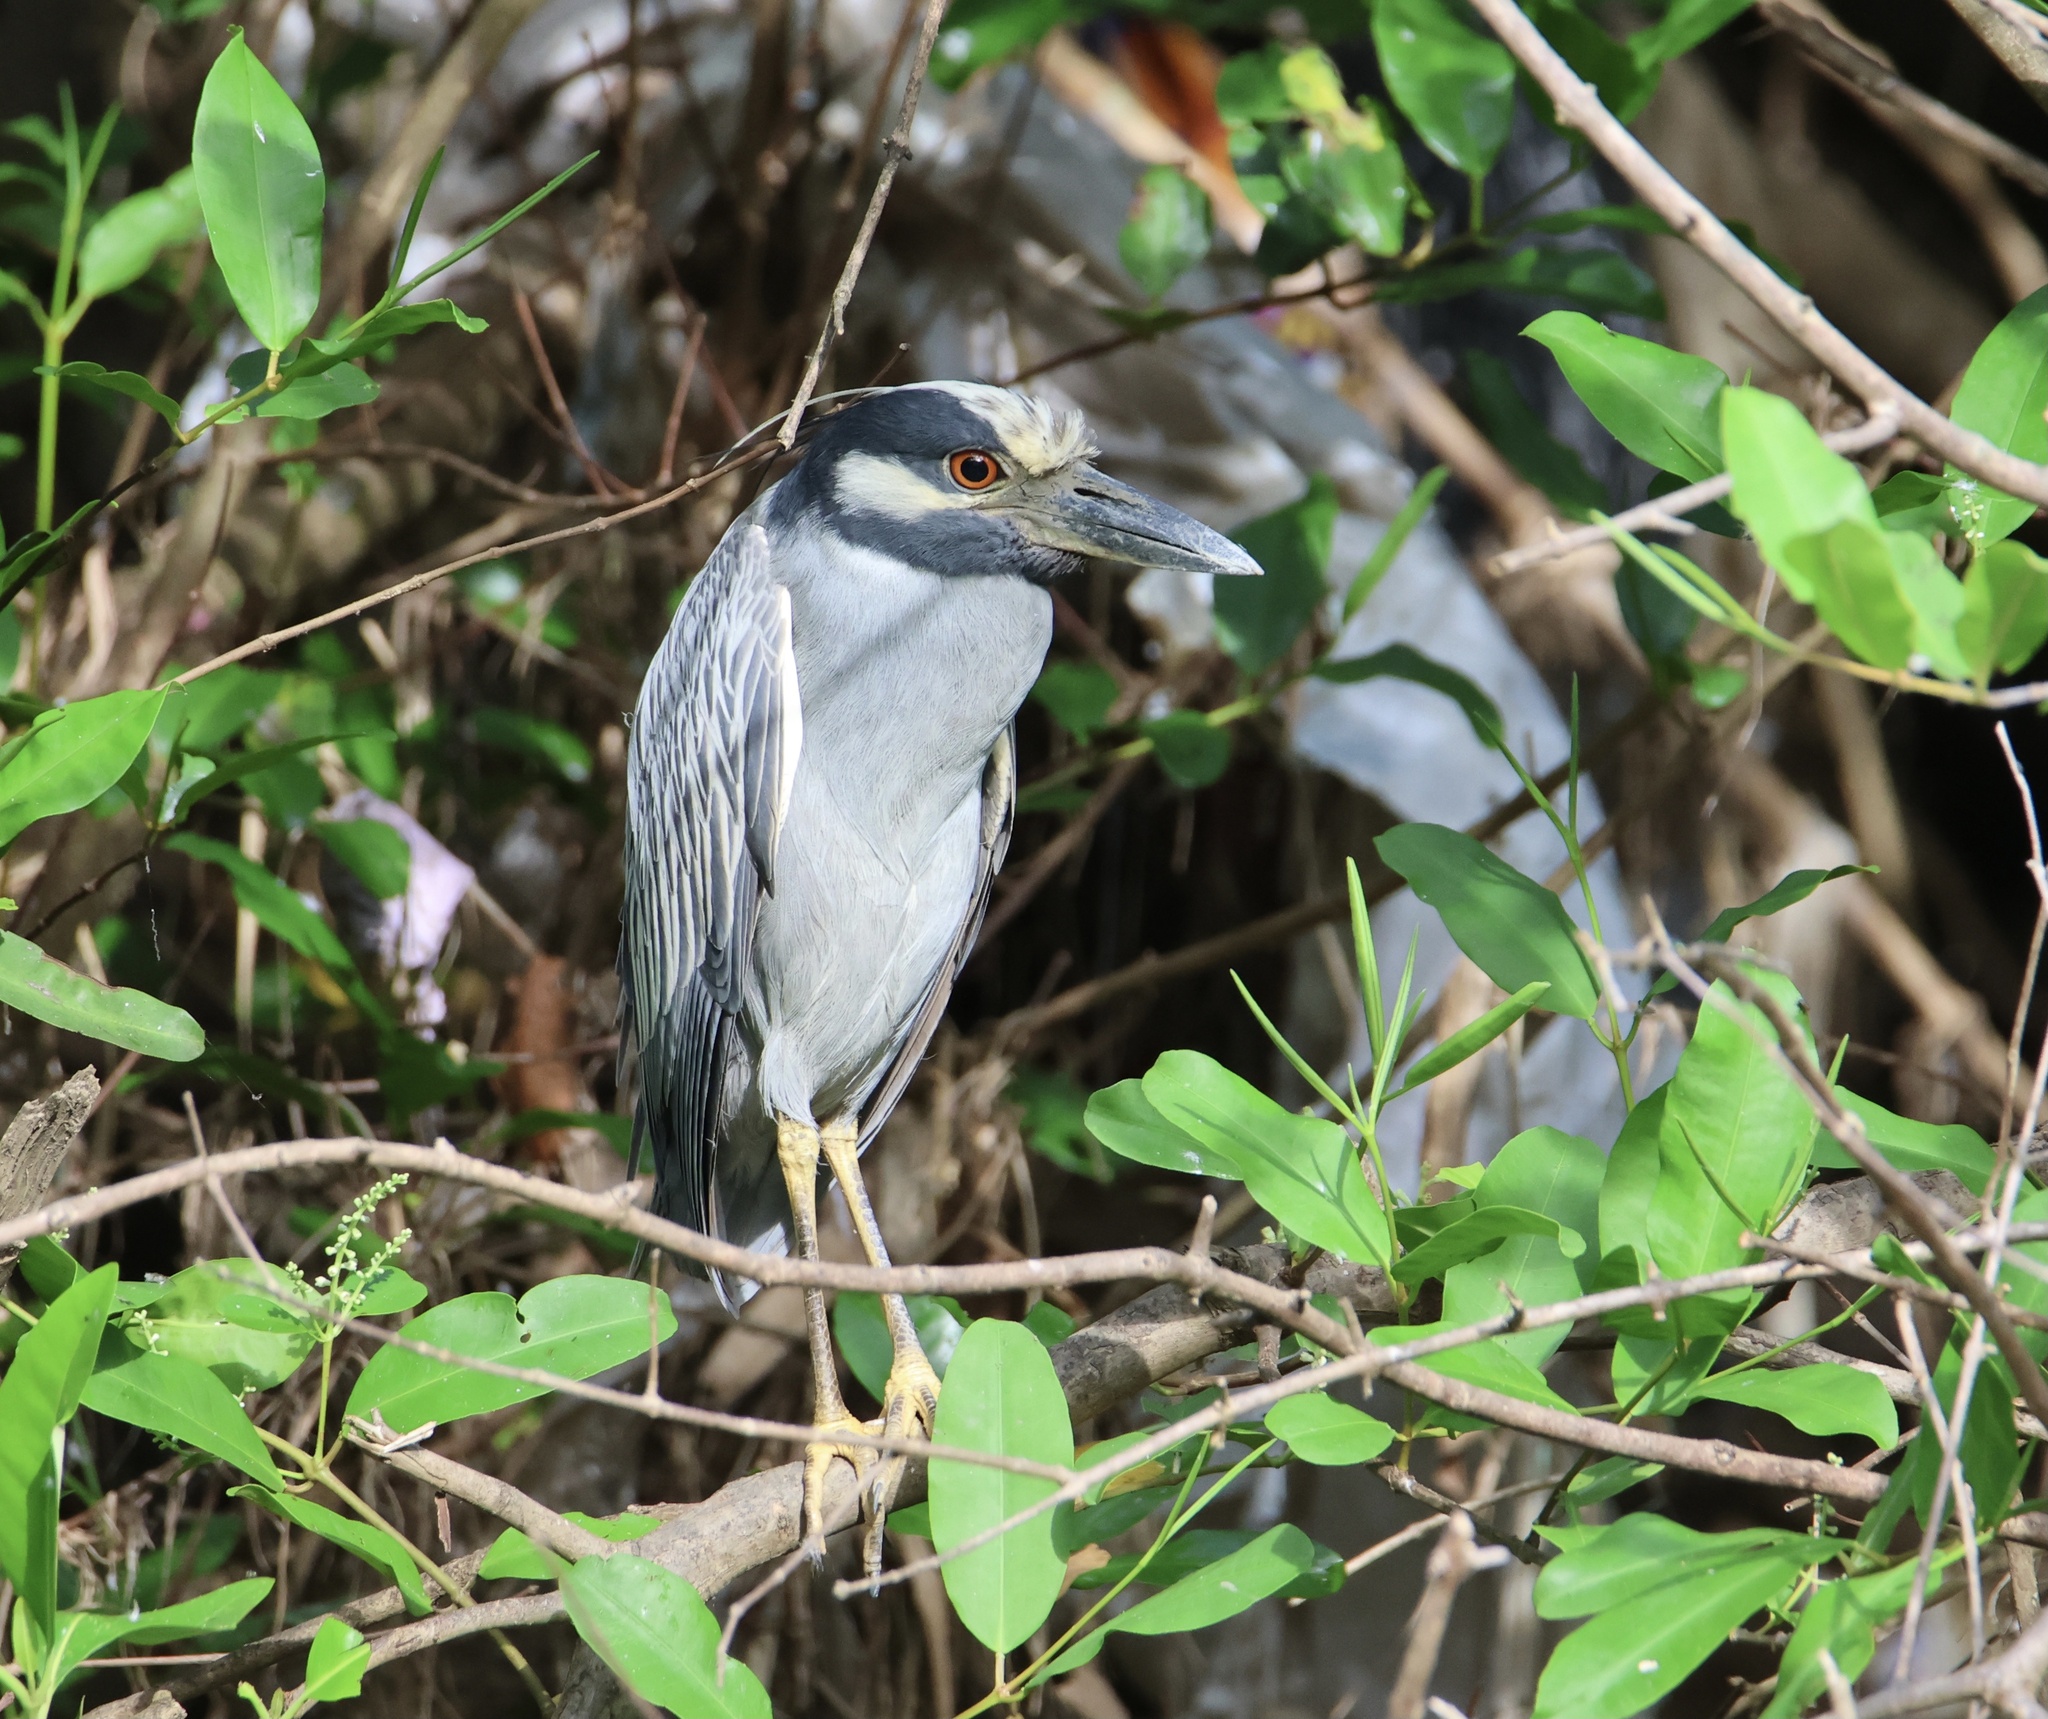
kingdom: Animalia
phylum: Chordata
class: Aves
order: Pelecaniformes
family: Ardeidae
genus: Nyctanassa
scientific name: Nyctanassa violacea
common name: Yellow-crowned night heron
